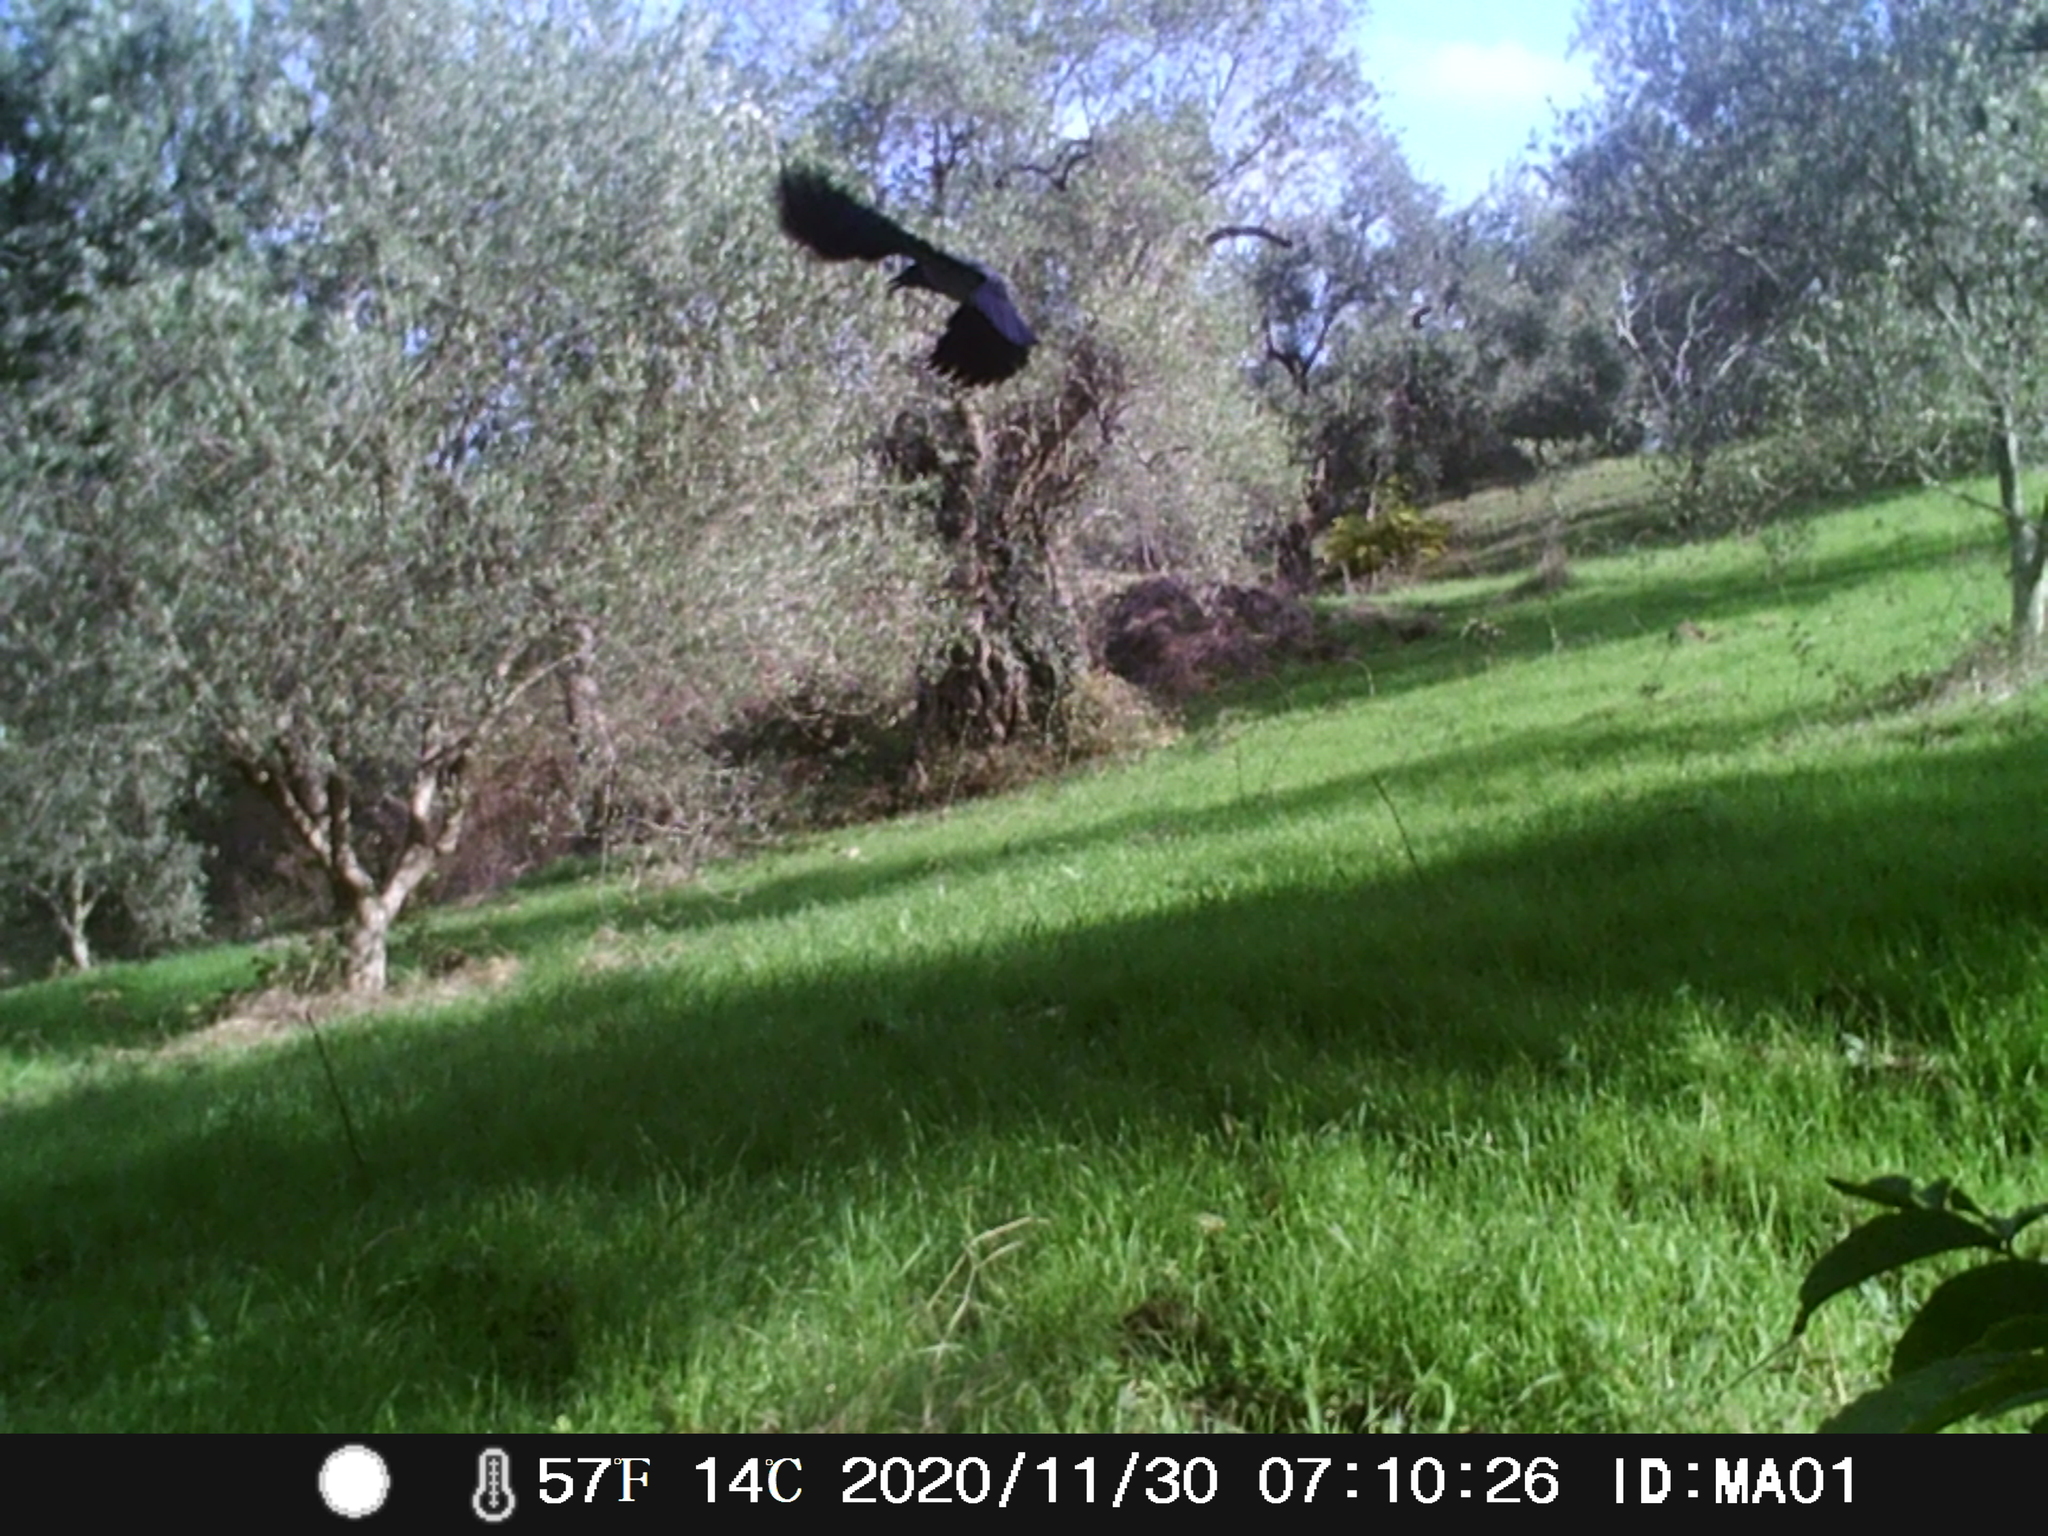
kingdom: Animalia
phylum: Chordata
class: Aves
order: Passeriformes
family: Corvidae
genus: Corvus
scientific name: Corvus cornix
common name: Hooded crow
